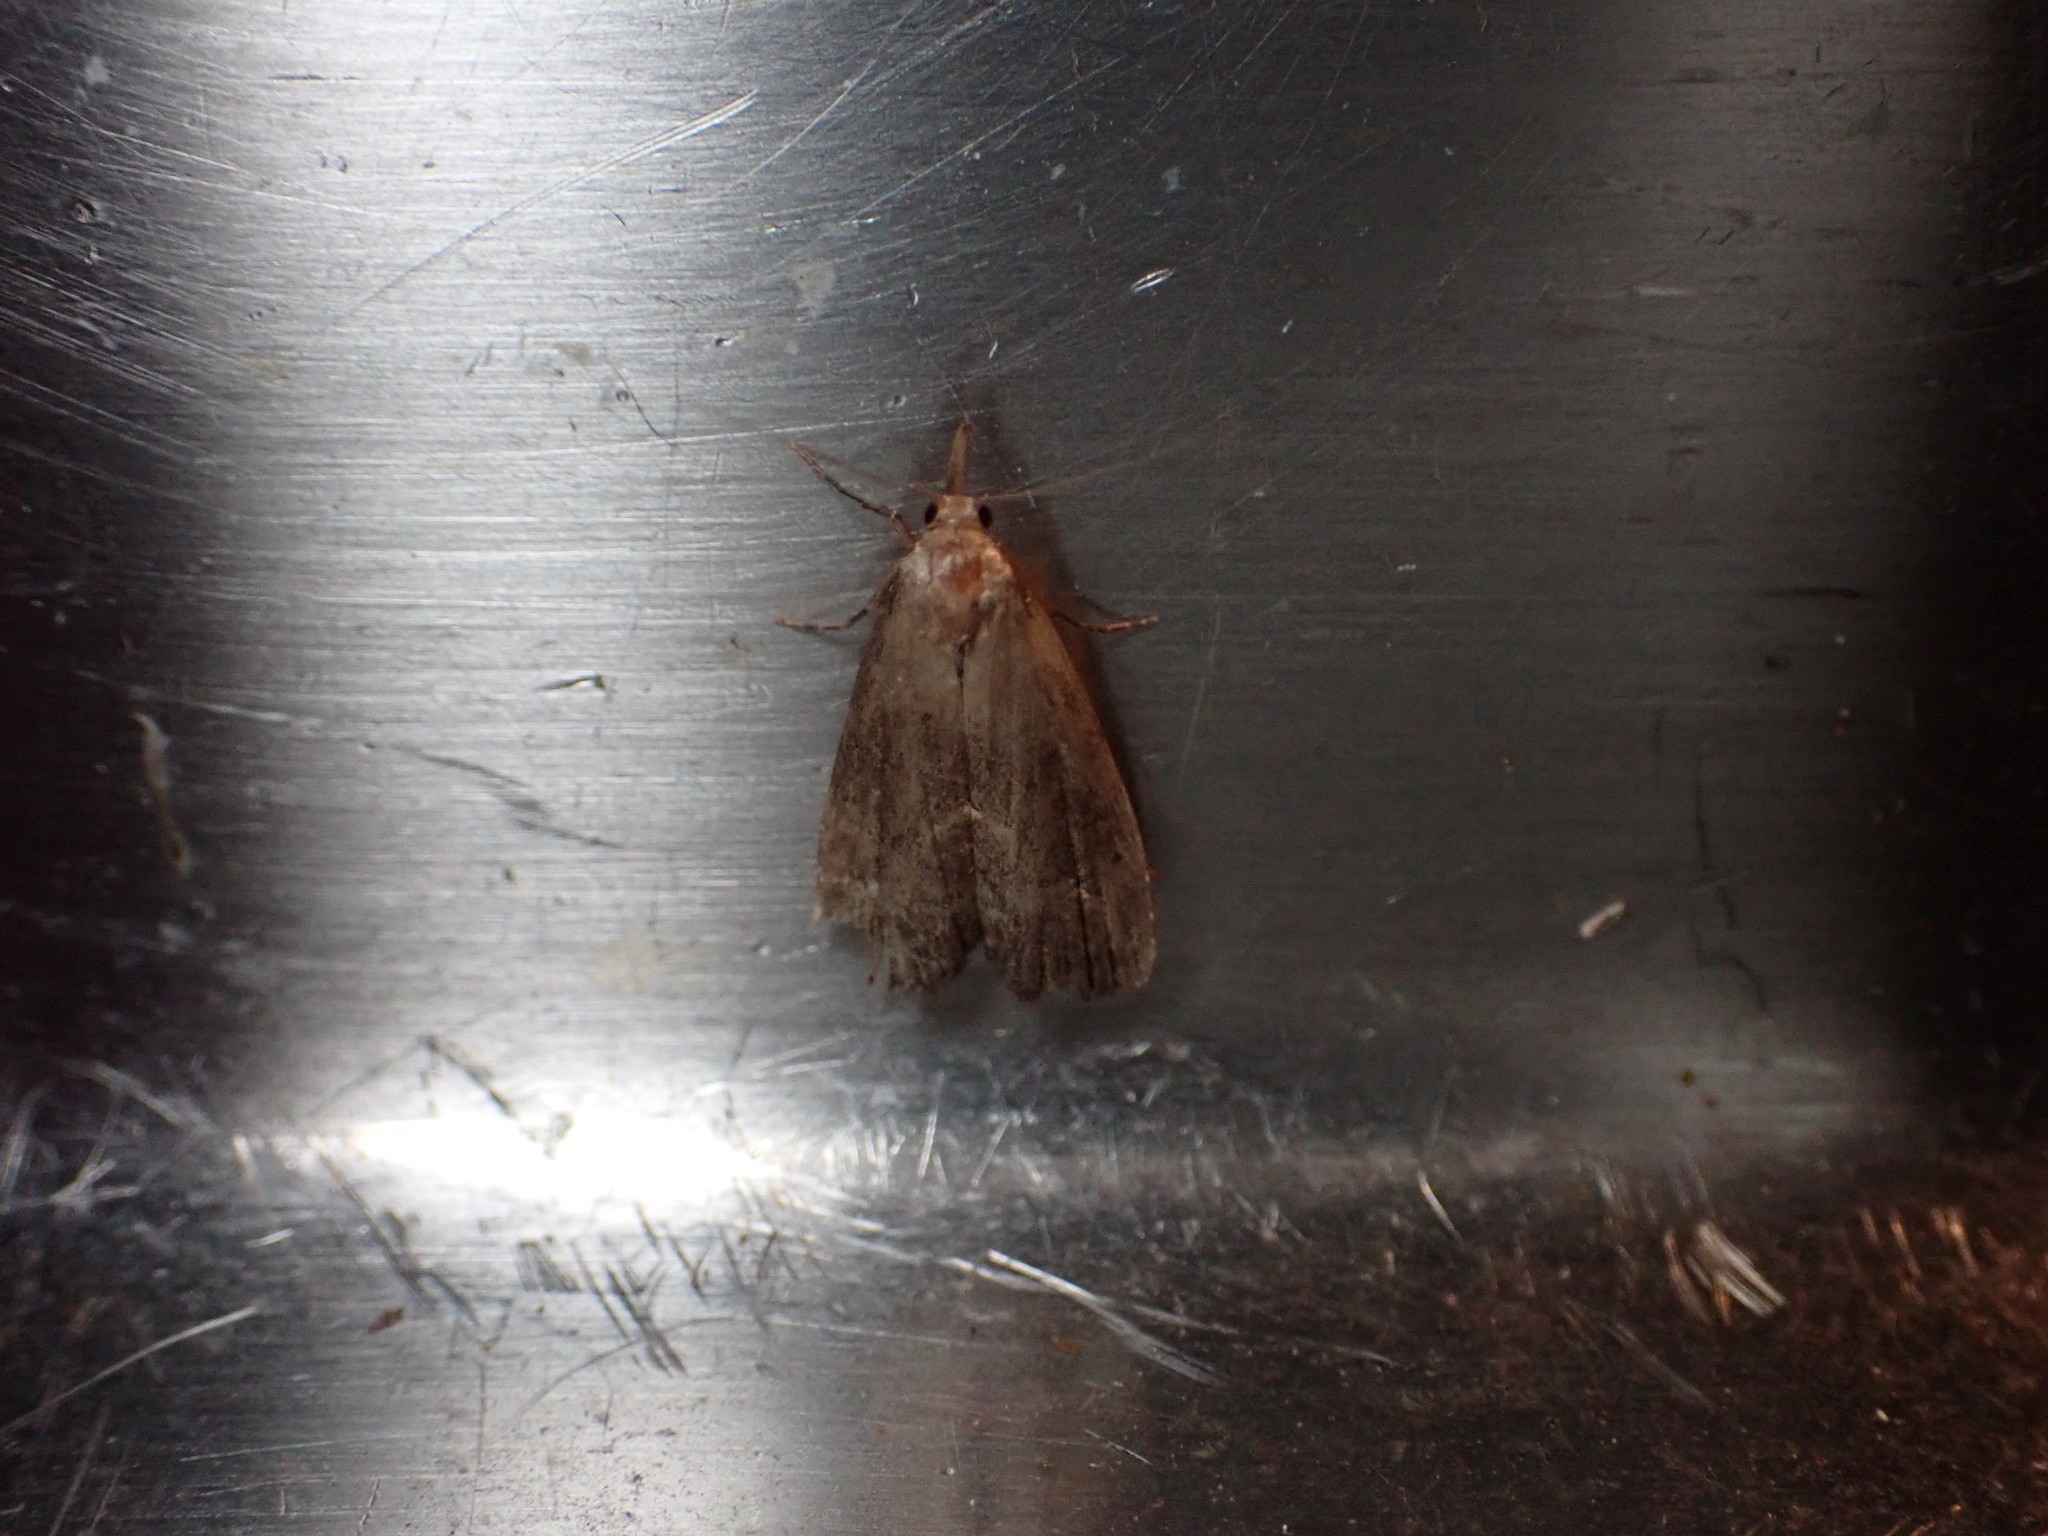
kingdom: Animalia
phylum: Arthropoda
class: Insecta
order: Lepidoptera
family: Erebidae
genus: Schrankia
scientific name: Schrankia costaestrigalis
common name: Pinion-streaked snout
